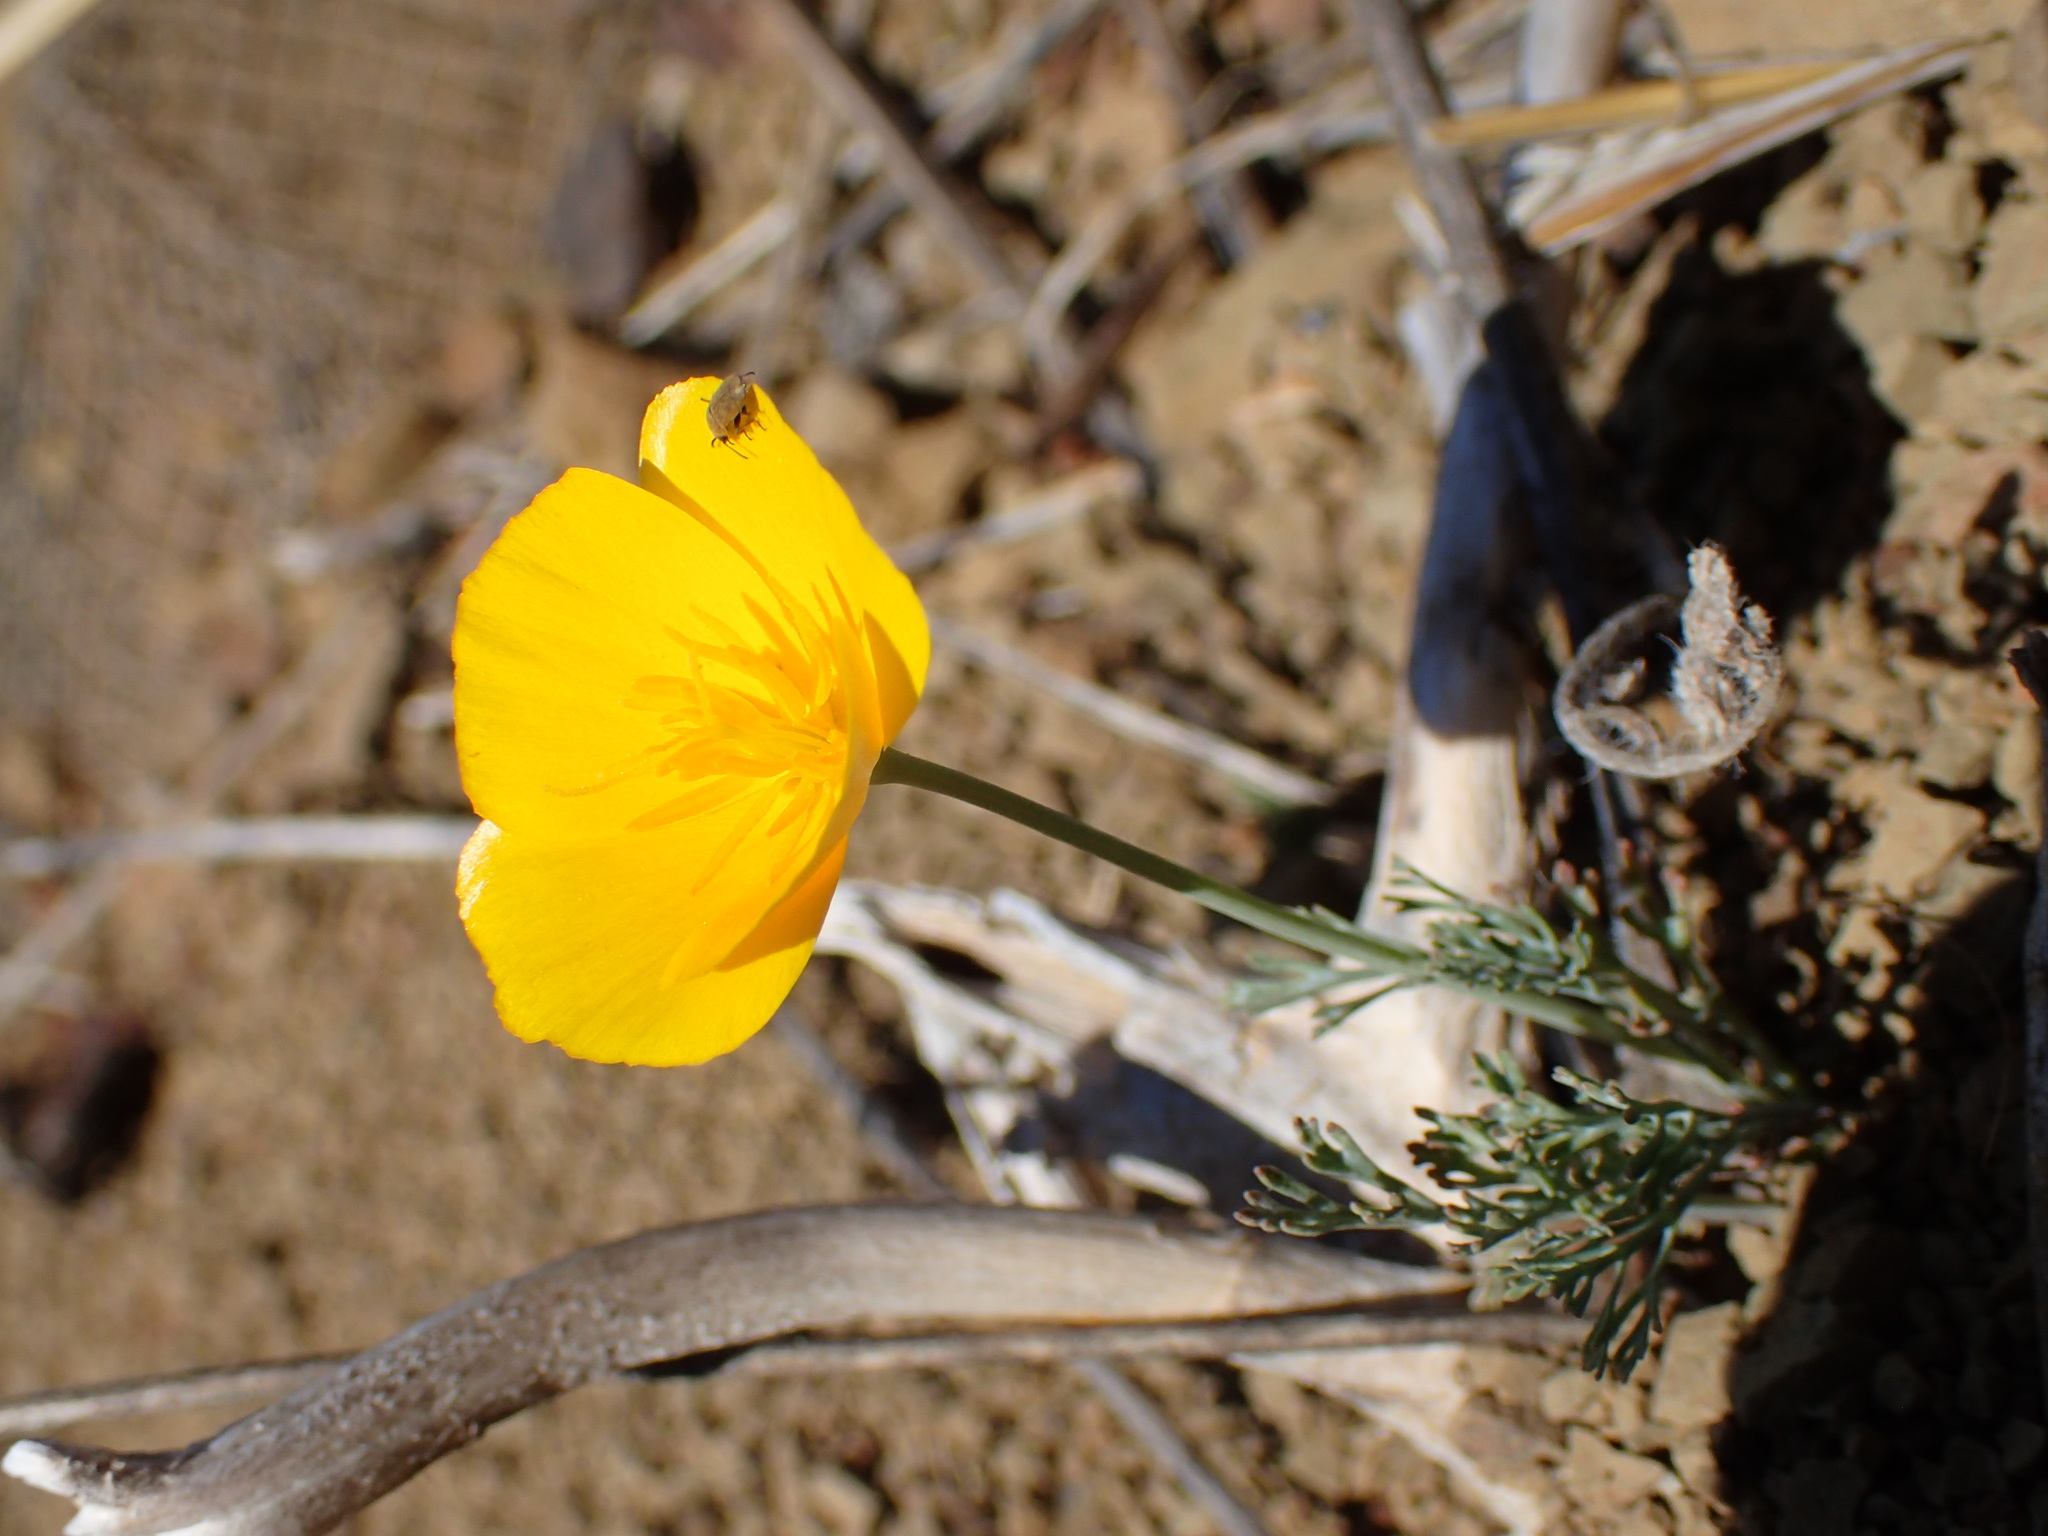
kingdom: Plantae
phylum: Tracheophyta
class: Magnoliopsida
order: Ranunculales
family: Papaveraceae
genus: Eschscholzia
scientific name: Eschscholzia caespitosa
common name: Tufted california-poppy
